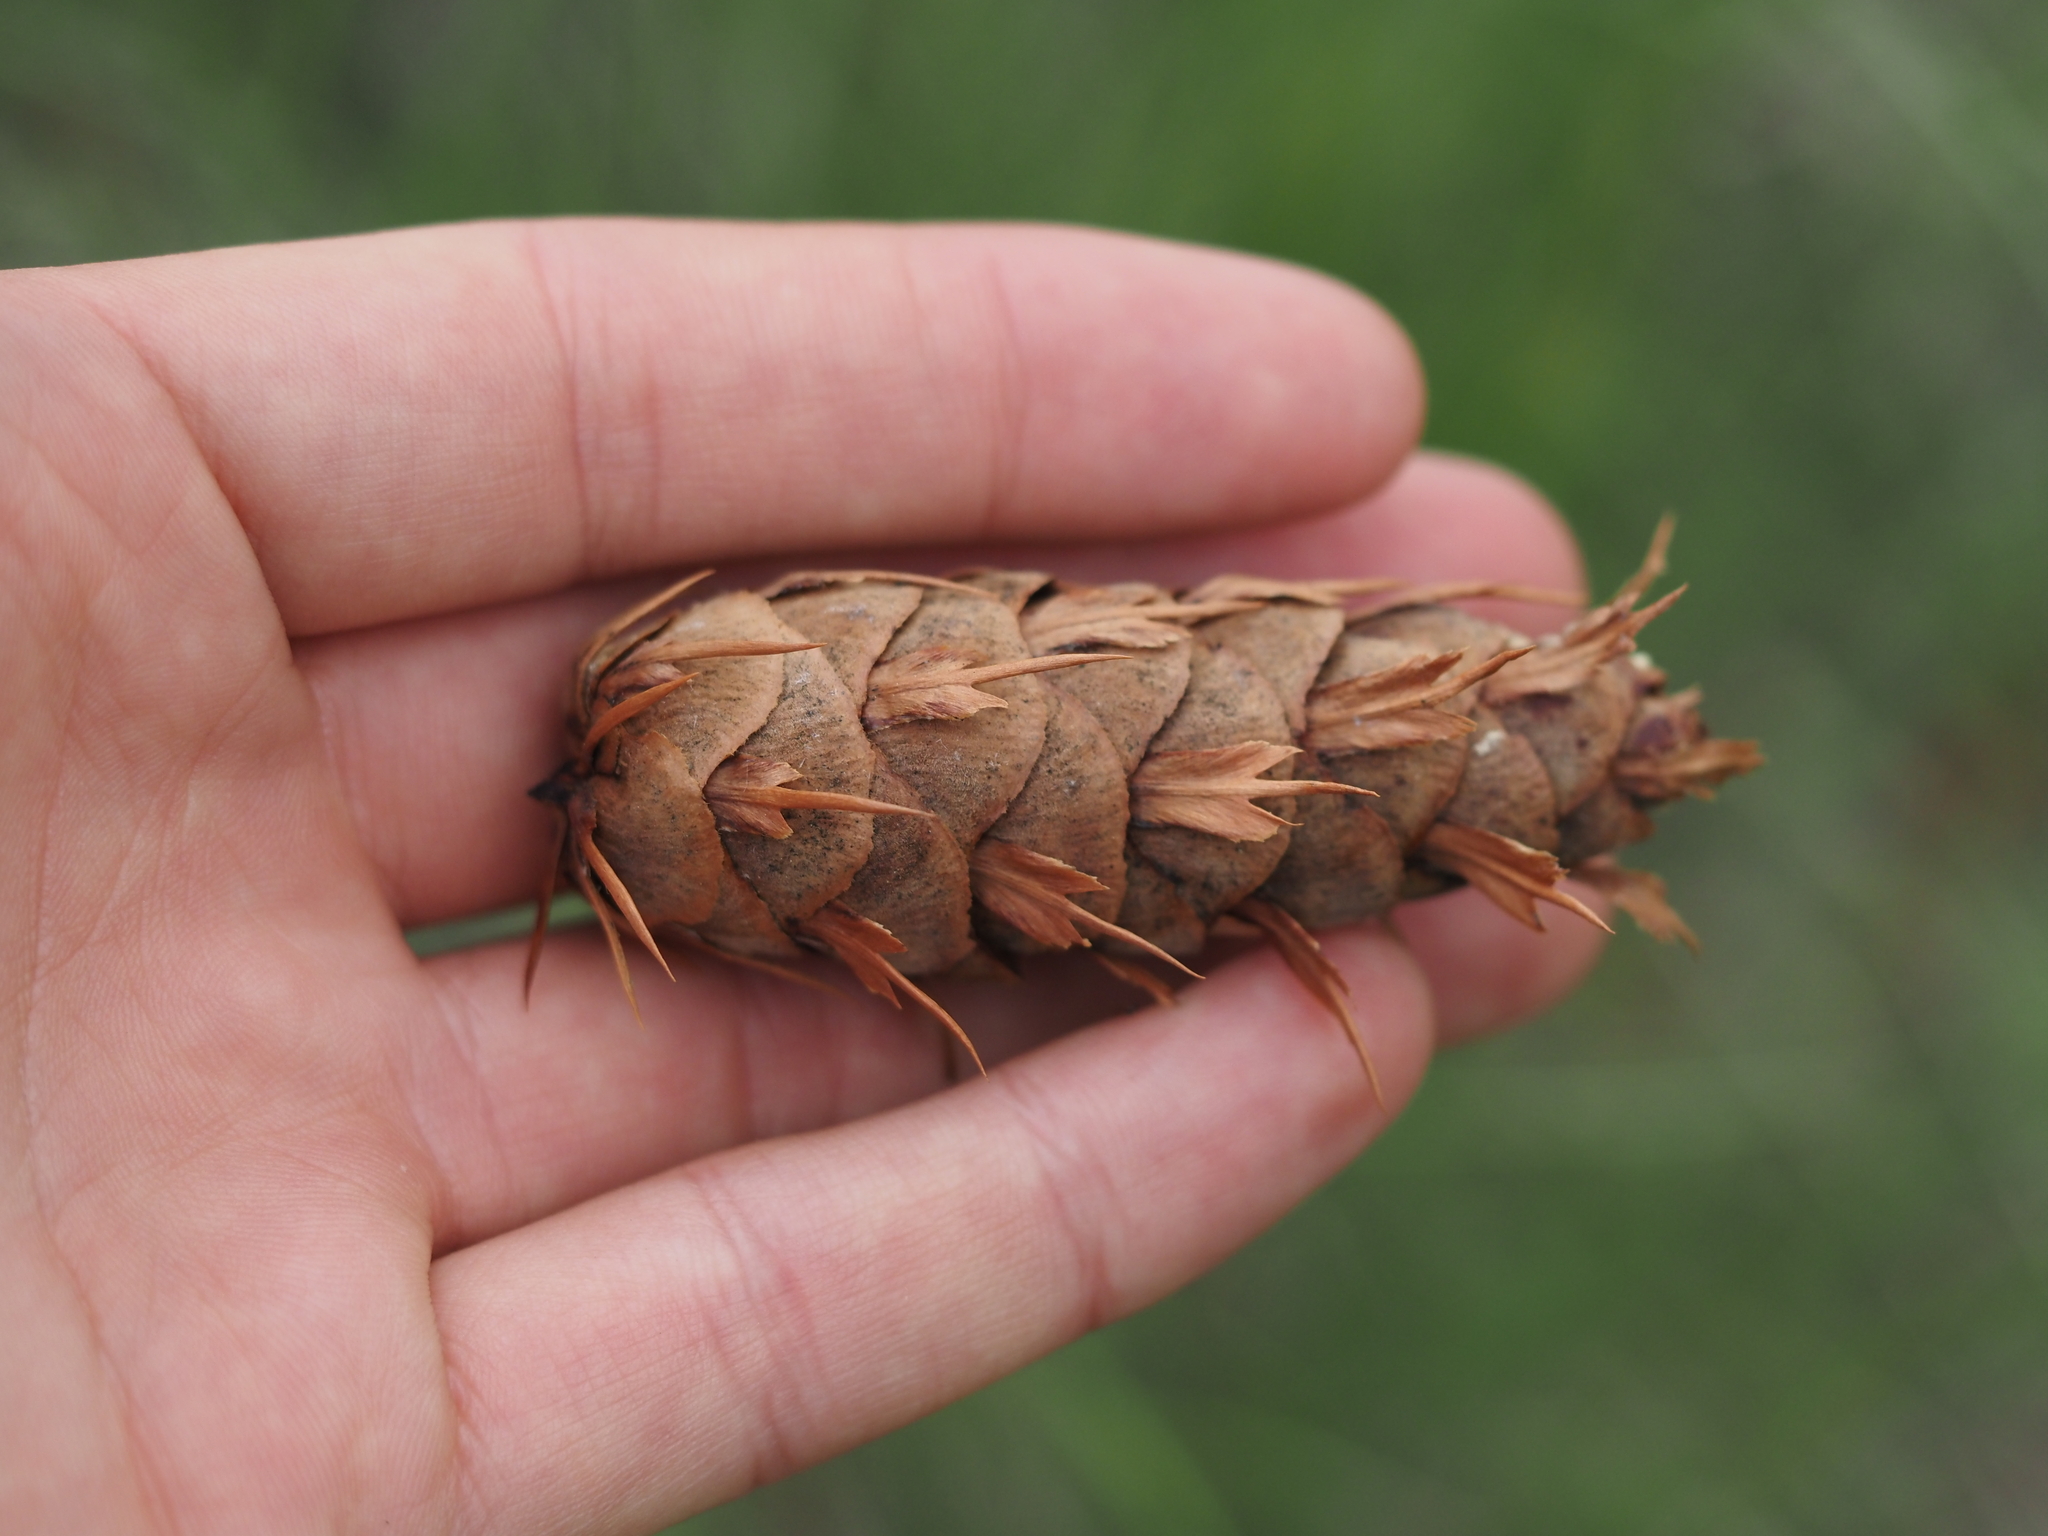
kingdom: Plantae
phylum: Tracheophyta
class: Pinopsida
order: Pinales
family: Pinaceae
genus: Pseudotsuga
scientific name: Pseudotsuga menziesii
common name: Douglas fir
